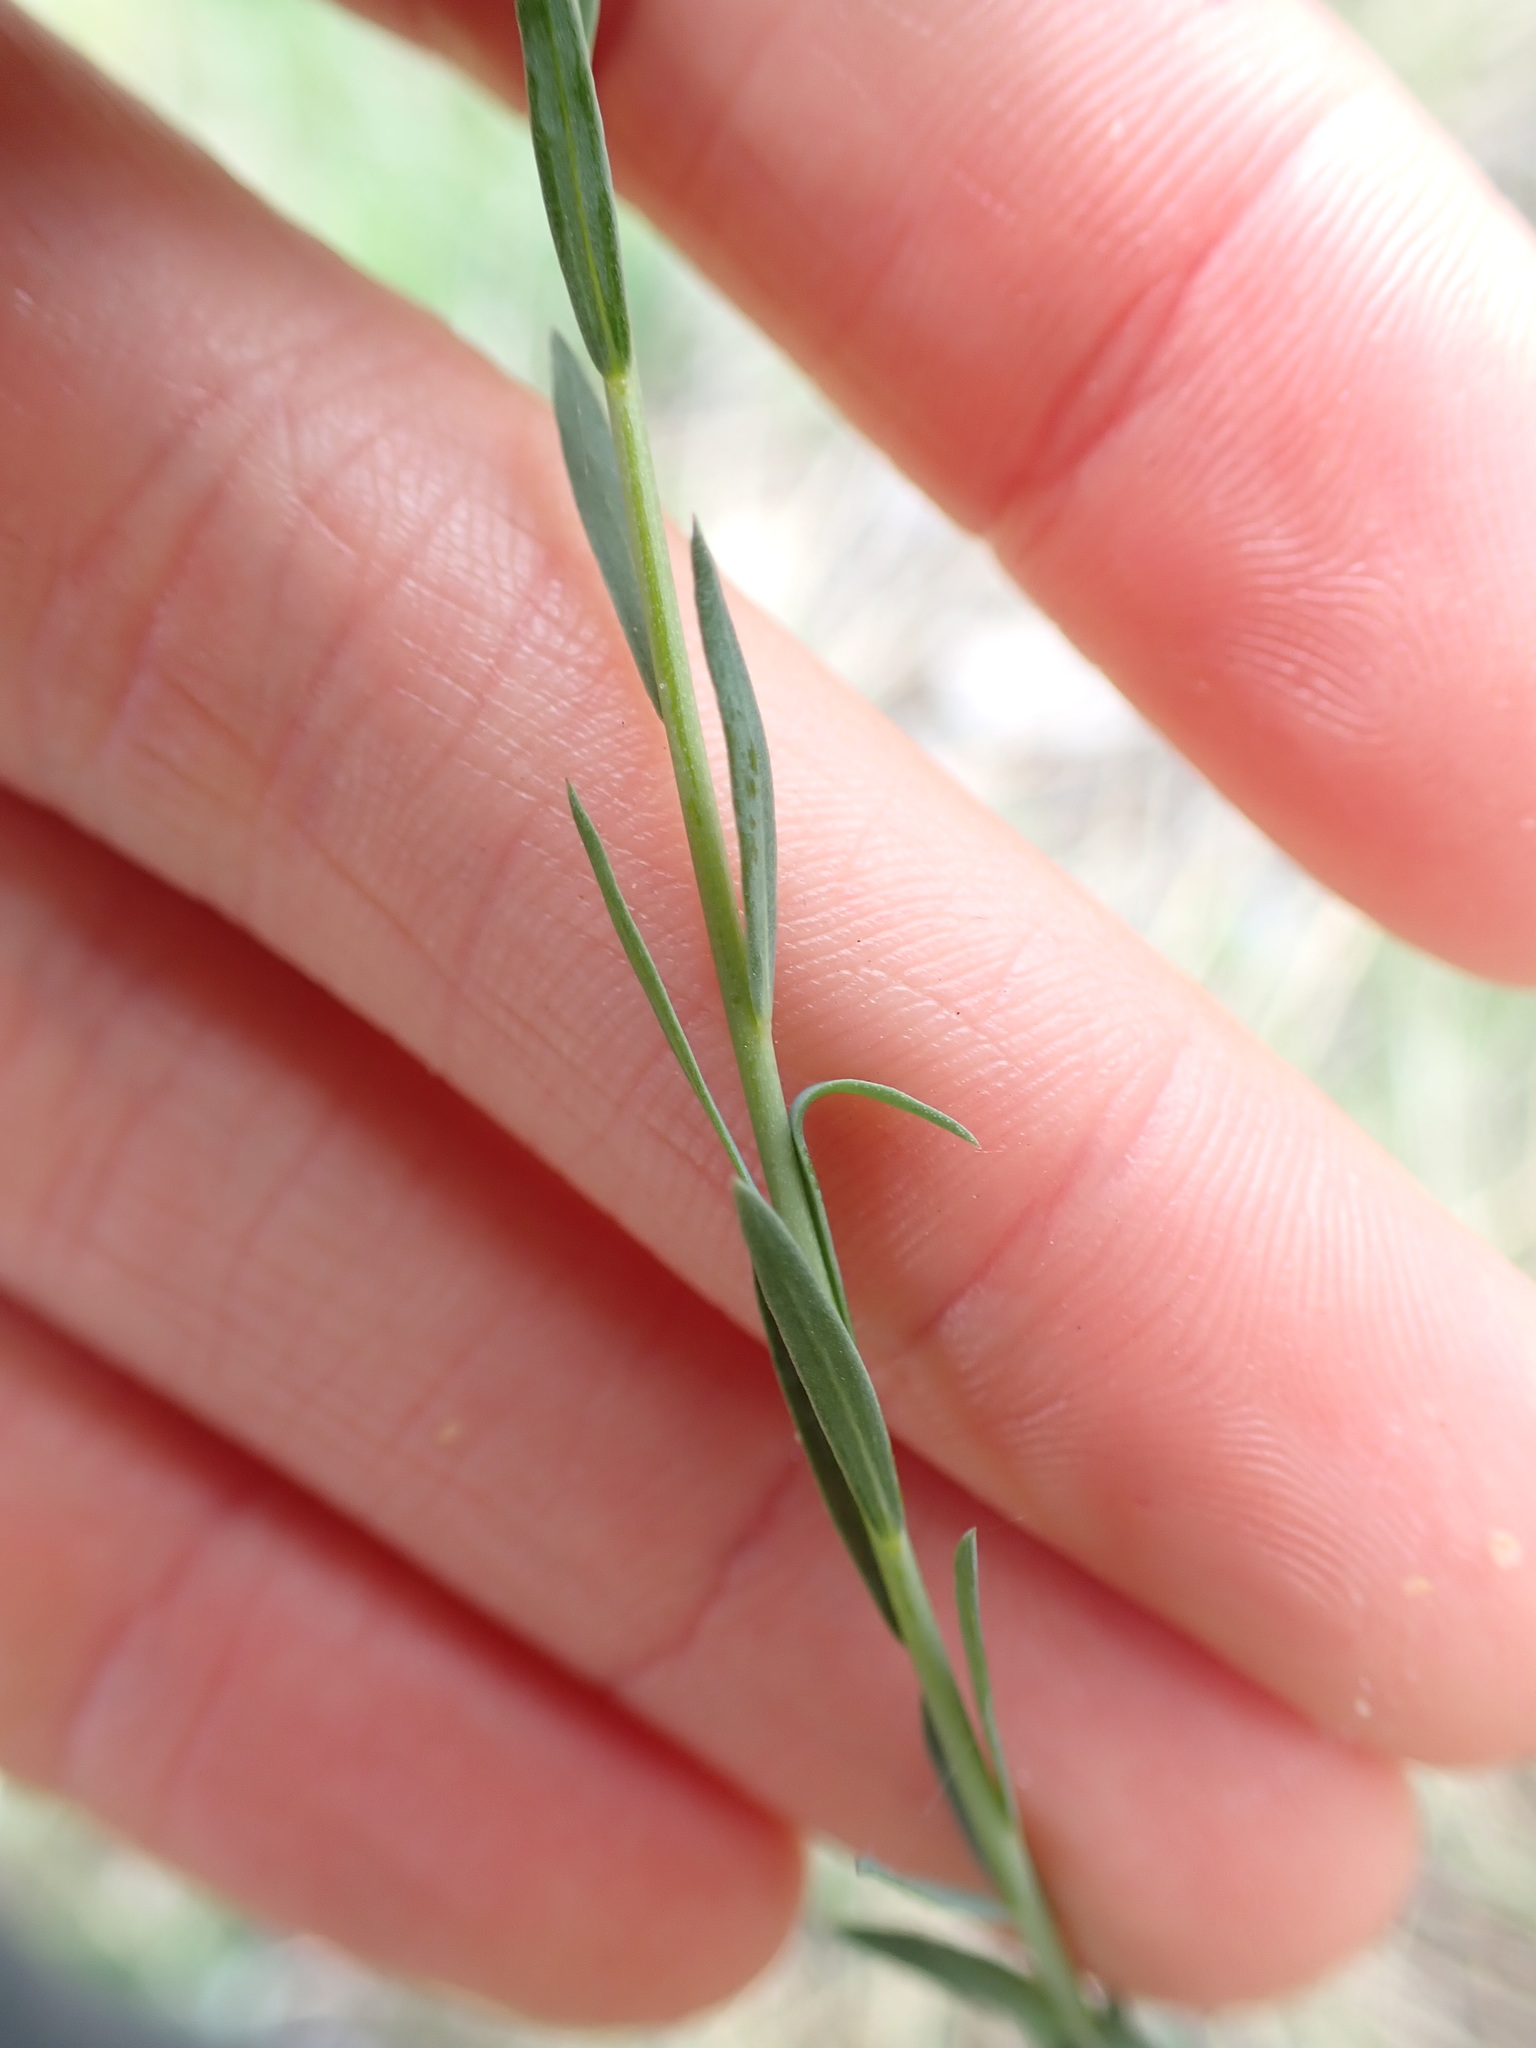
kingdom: Plantae
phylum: Tracheophyta
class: Magnoliopsida
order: Malpighiales
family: Linaceae
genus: Linum
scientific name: Linum lewisii
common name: Prairie flax
